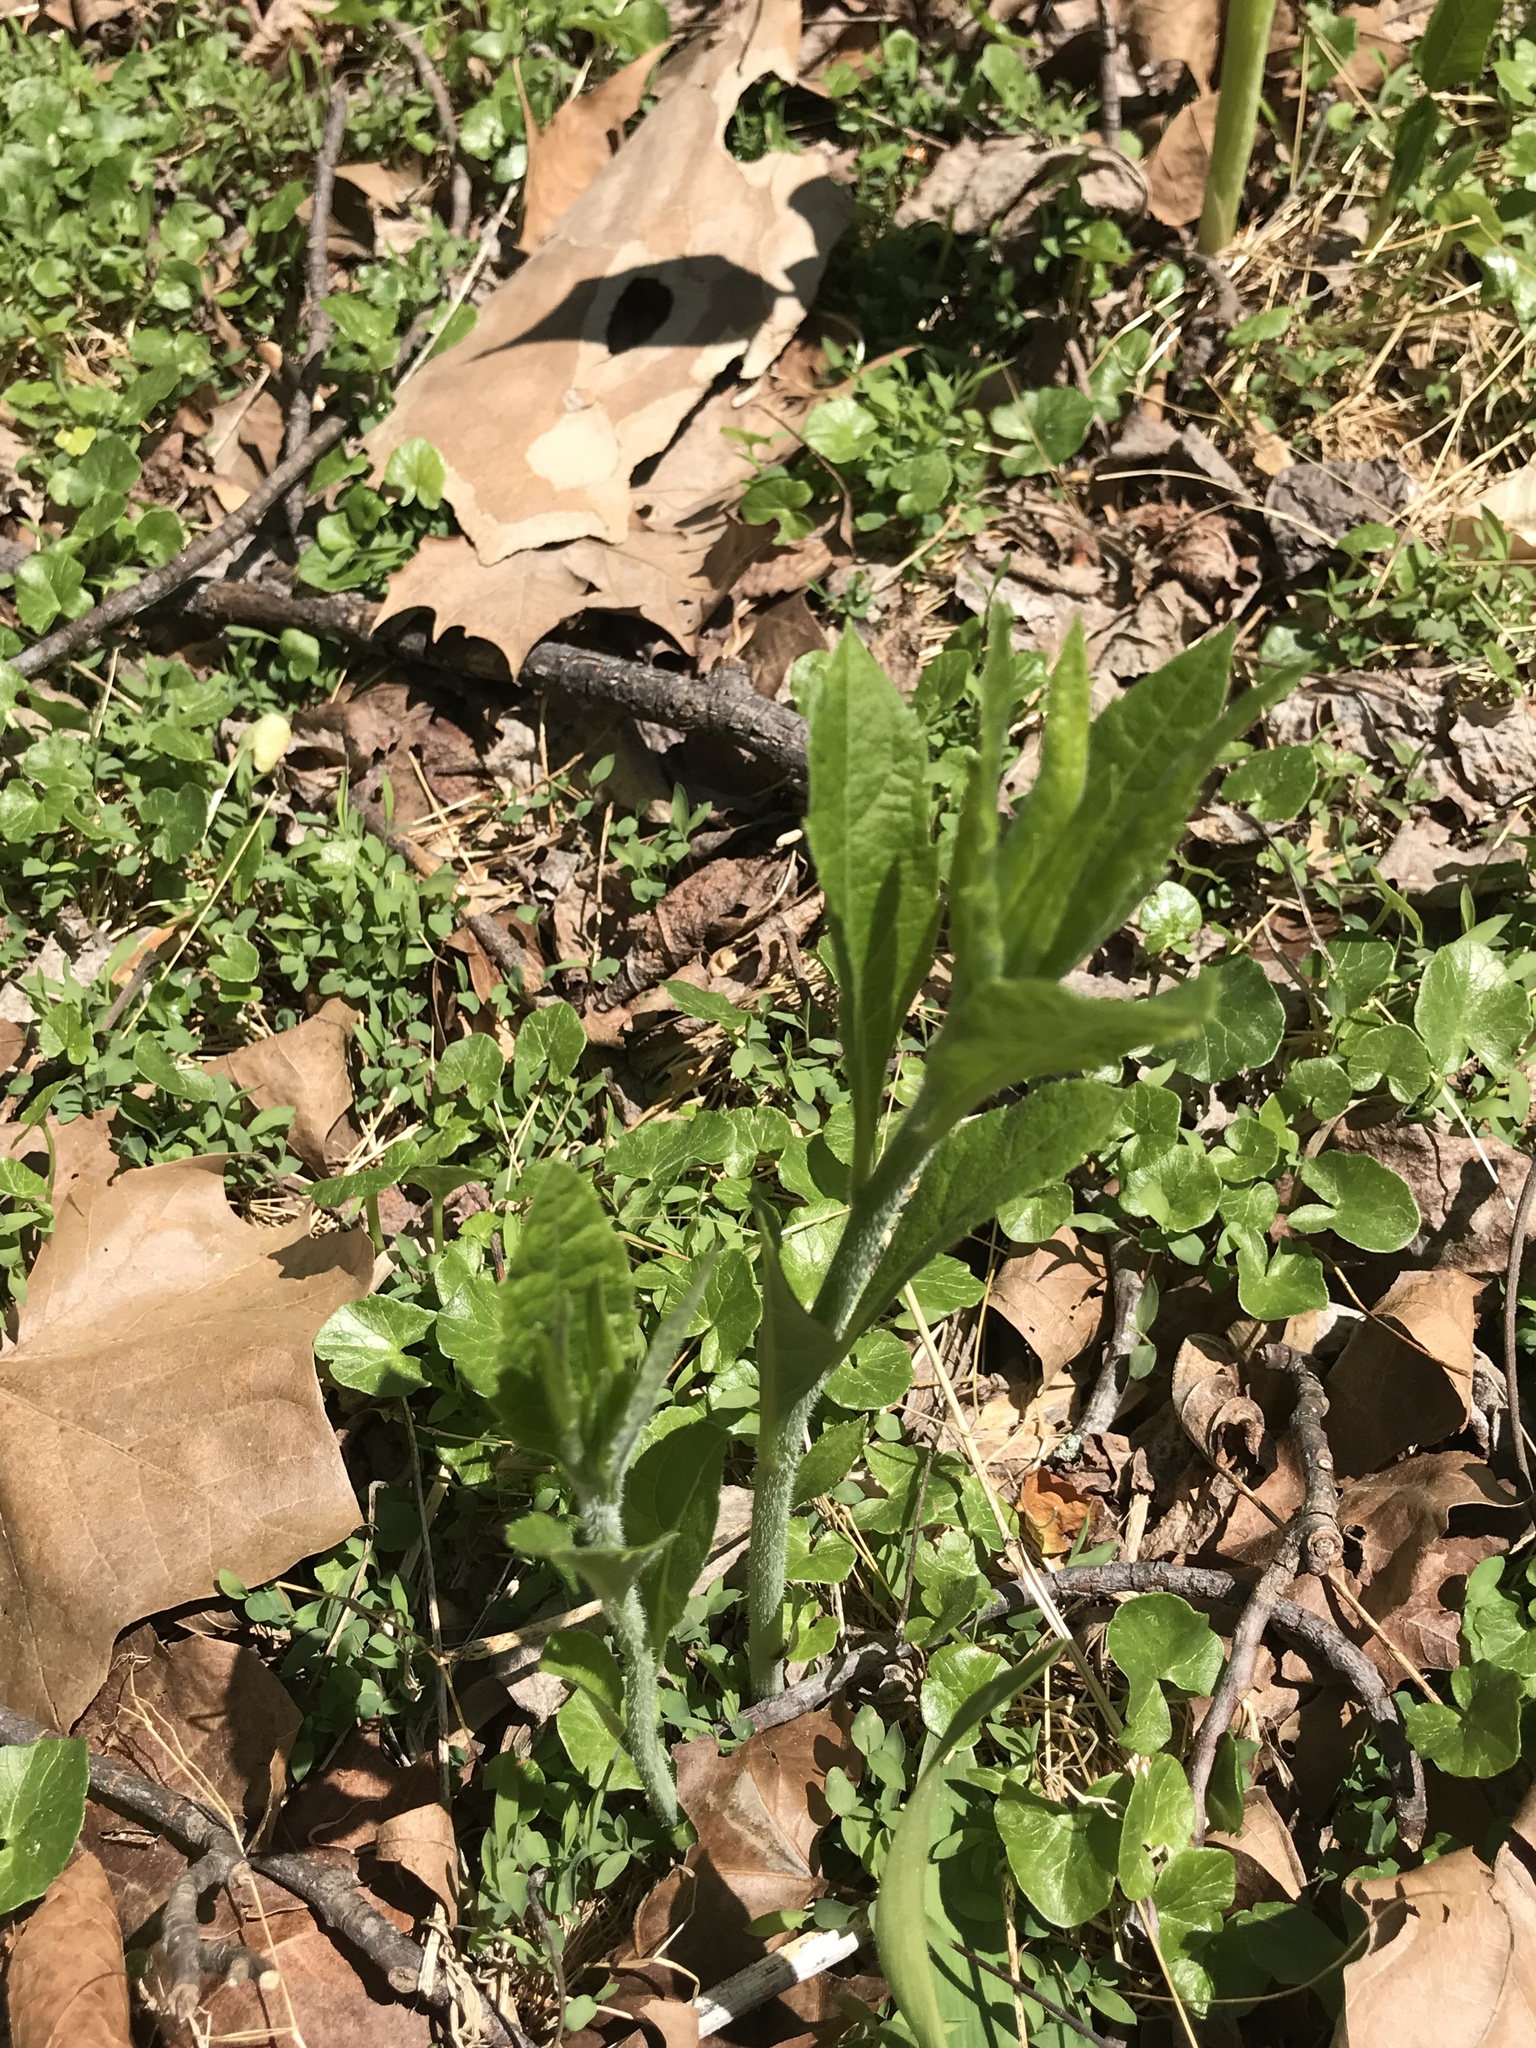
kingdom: Plantae
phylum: Tracheophyta
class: Magnoliopsida
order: Asterales
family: Asteraceae
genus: Verbesina
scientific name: Verbesina alternifolia
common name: Wingstem
